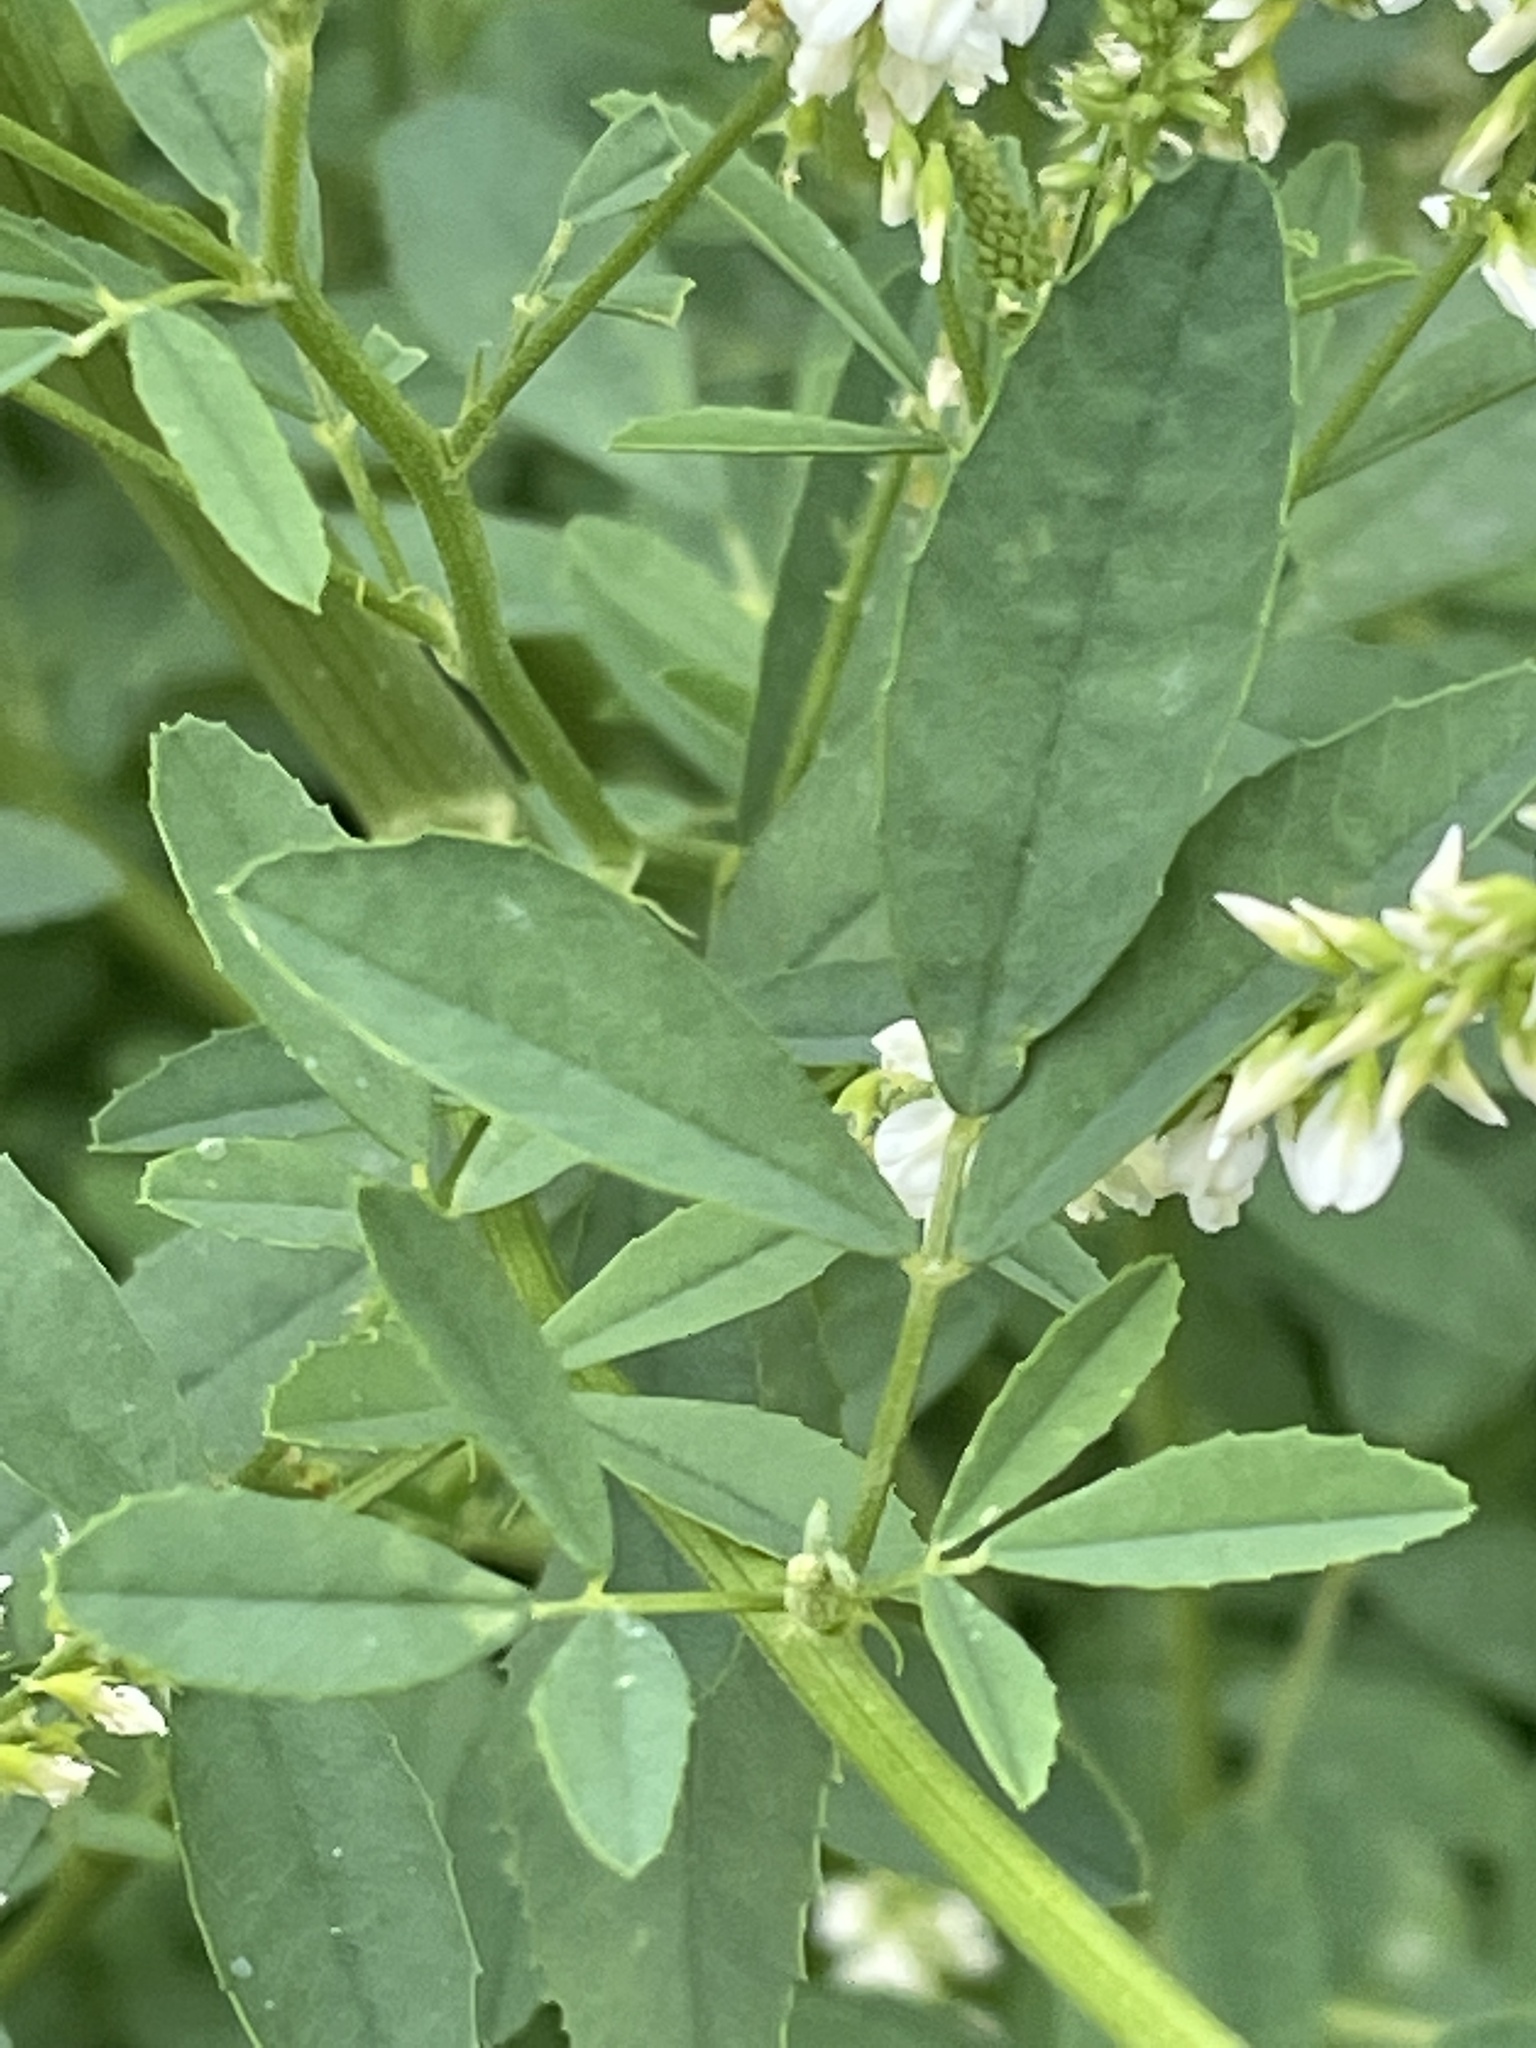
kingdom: Plantae
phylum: Tracheophyta
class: Magnoliopsida
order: Fabales
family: Fabaceae
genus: Melilotus
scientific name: Melilotus albus
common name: White melilot
